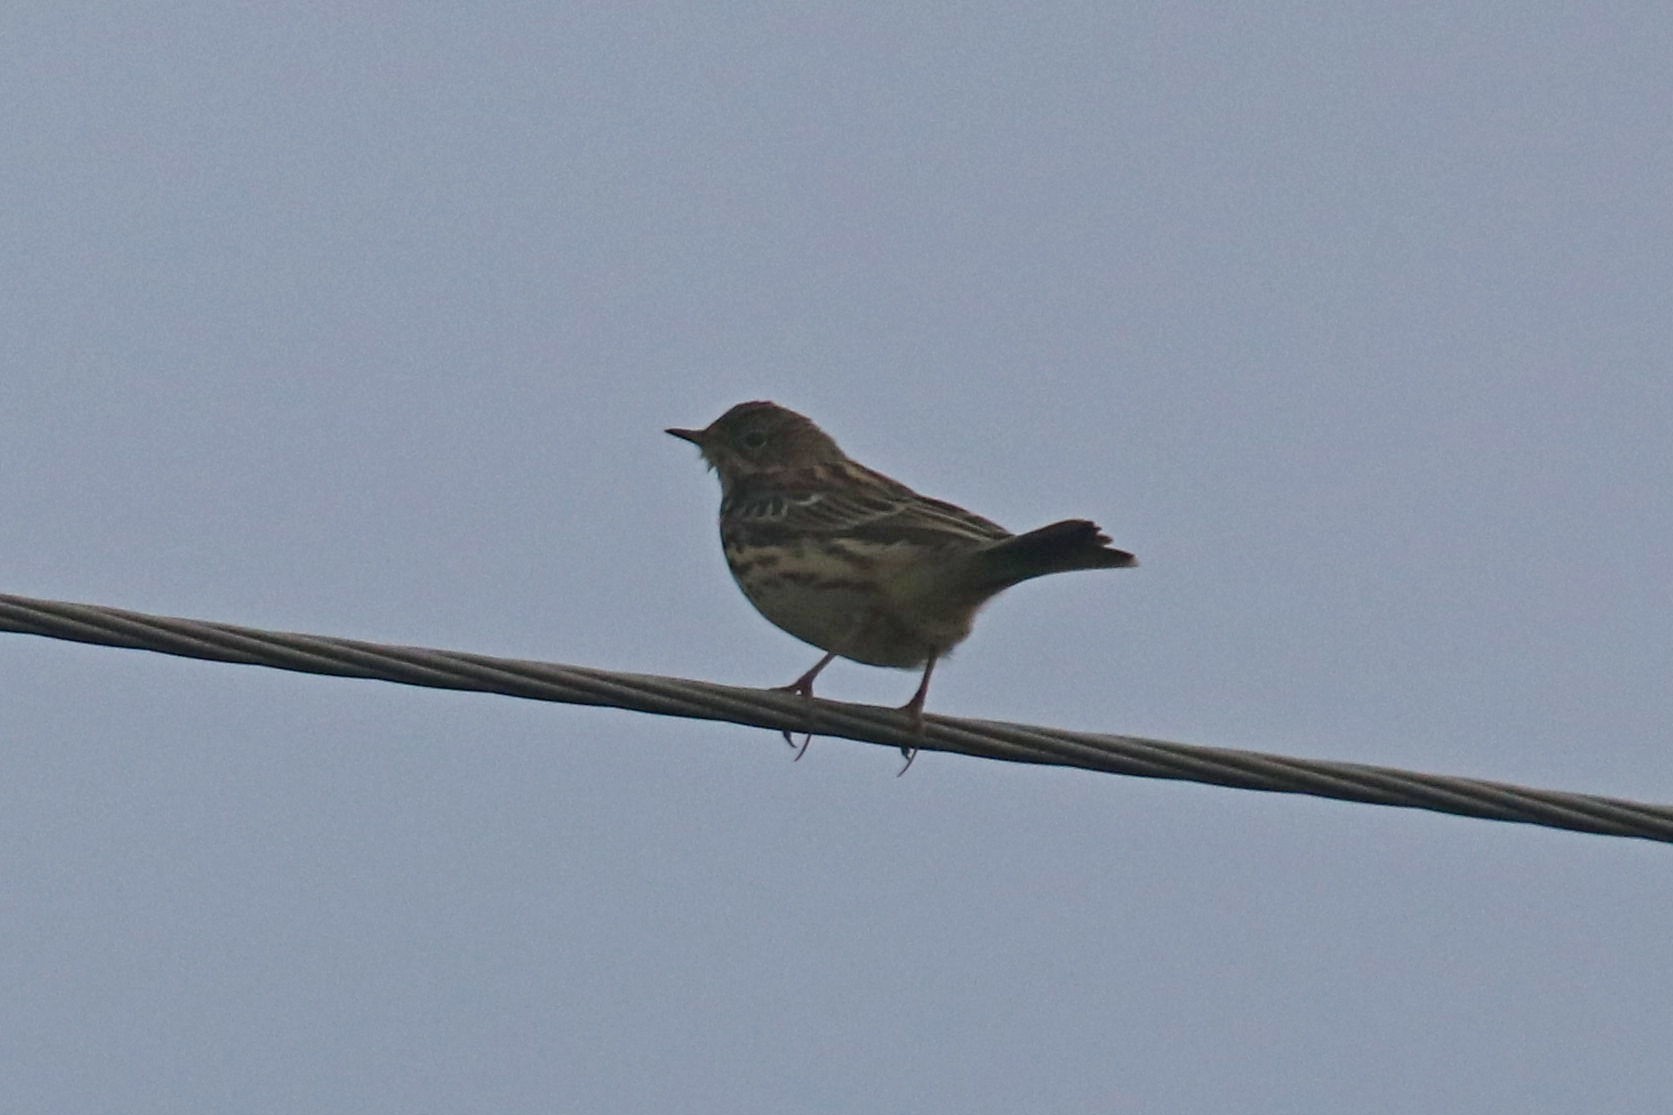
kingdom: Animalia
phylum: Chordata
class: Aves
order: Passeriformes
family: Motacillidae
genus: Anthus
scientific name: Anthus pratensis
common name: Meadow pipit
